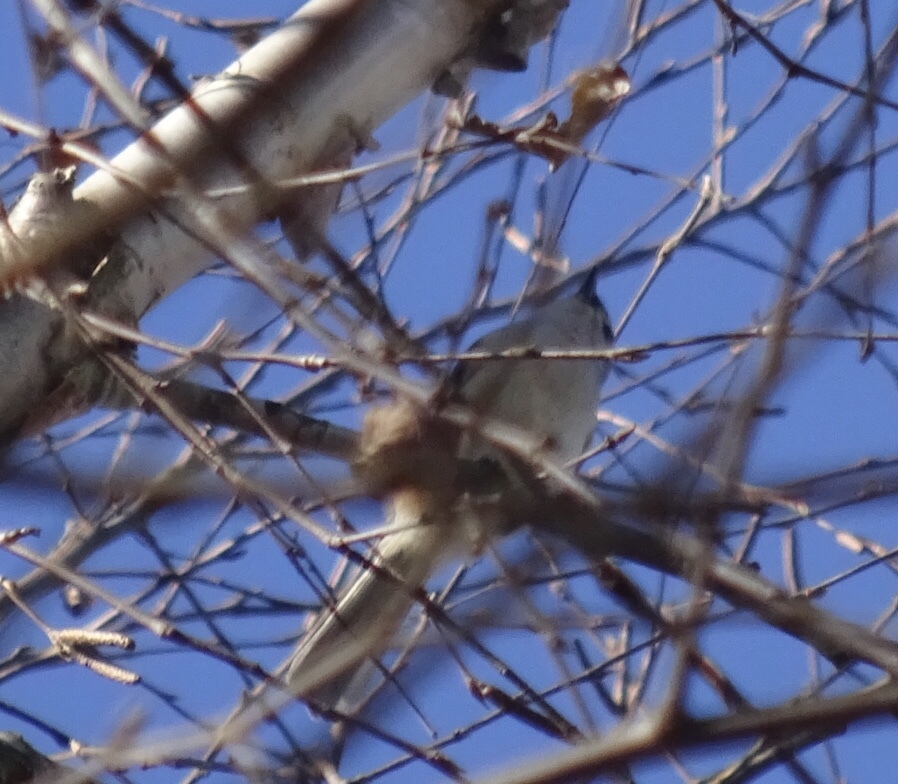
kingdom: Animalia
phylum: Chordata
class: Aves
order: Passeriformes
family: Paridae
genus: Baeolophus
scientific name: Baeolophus bicolor
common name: Tufted titmouse
